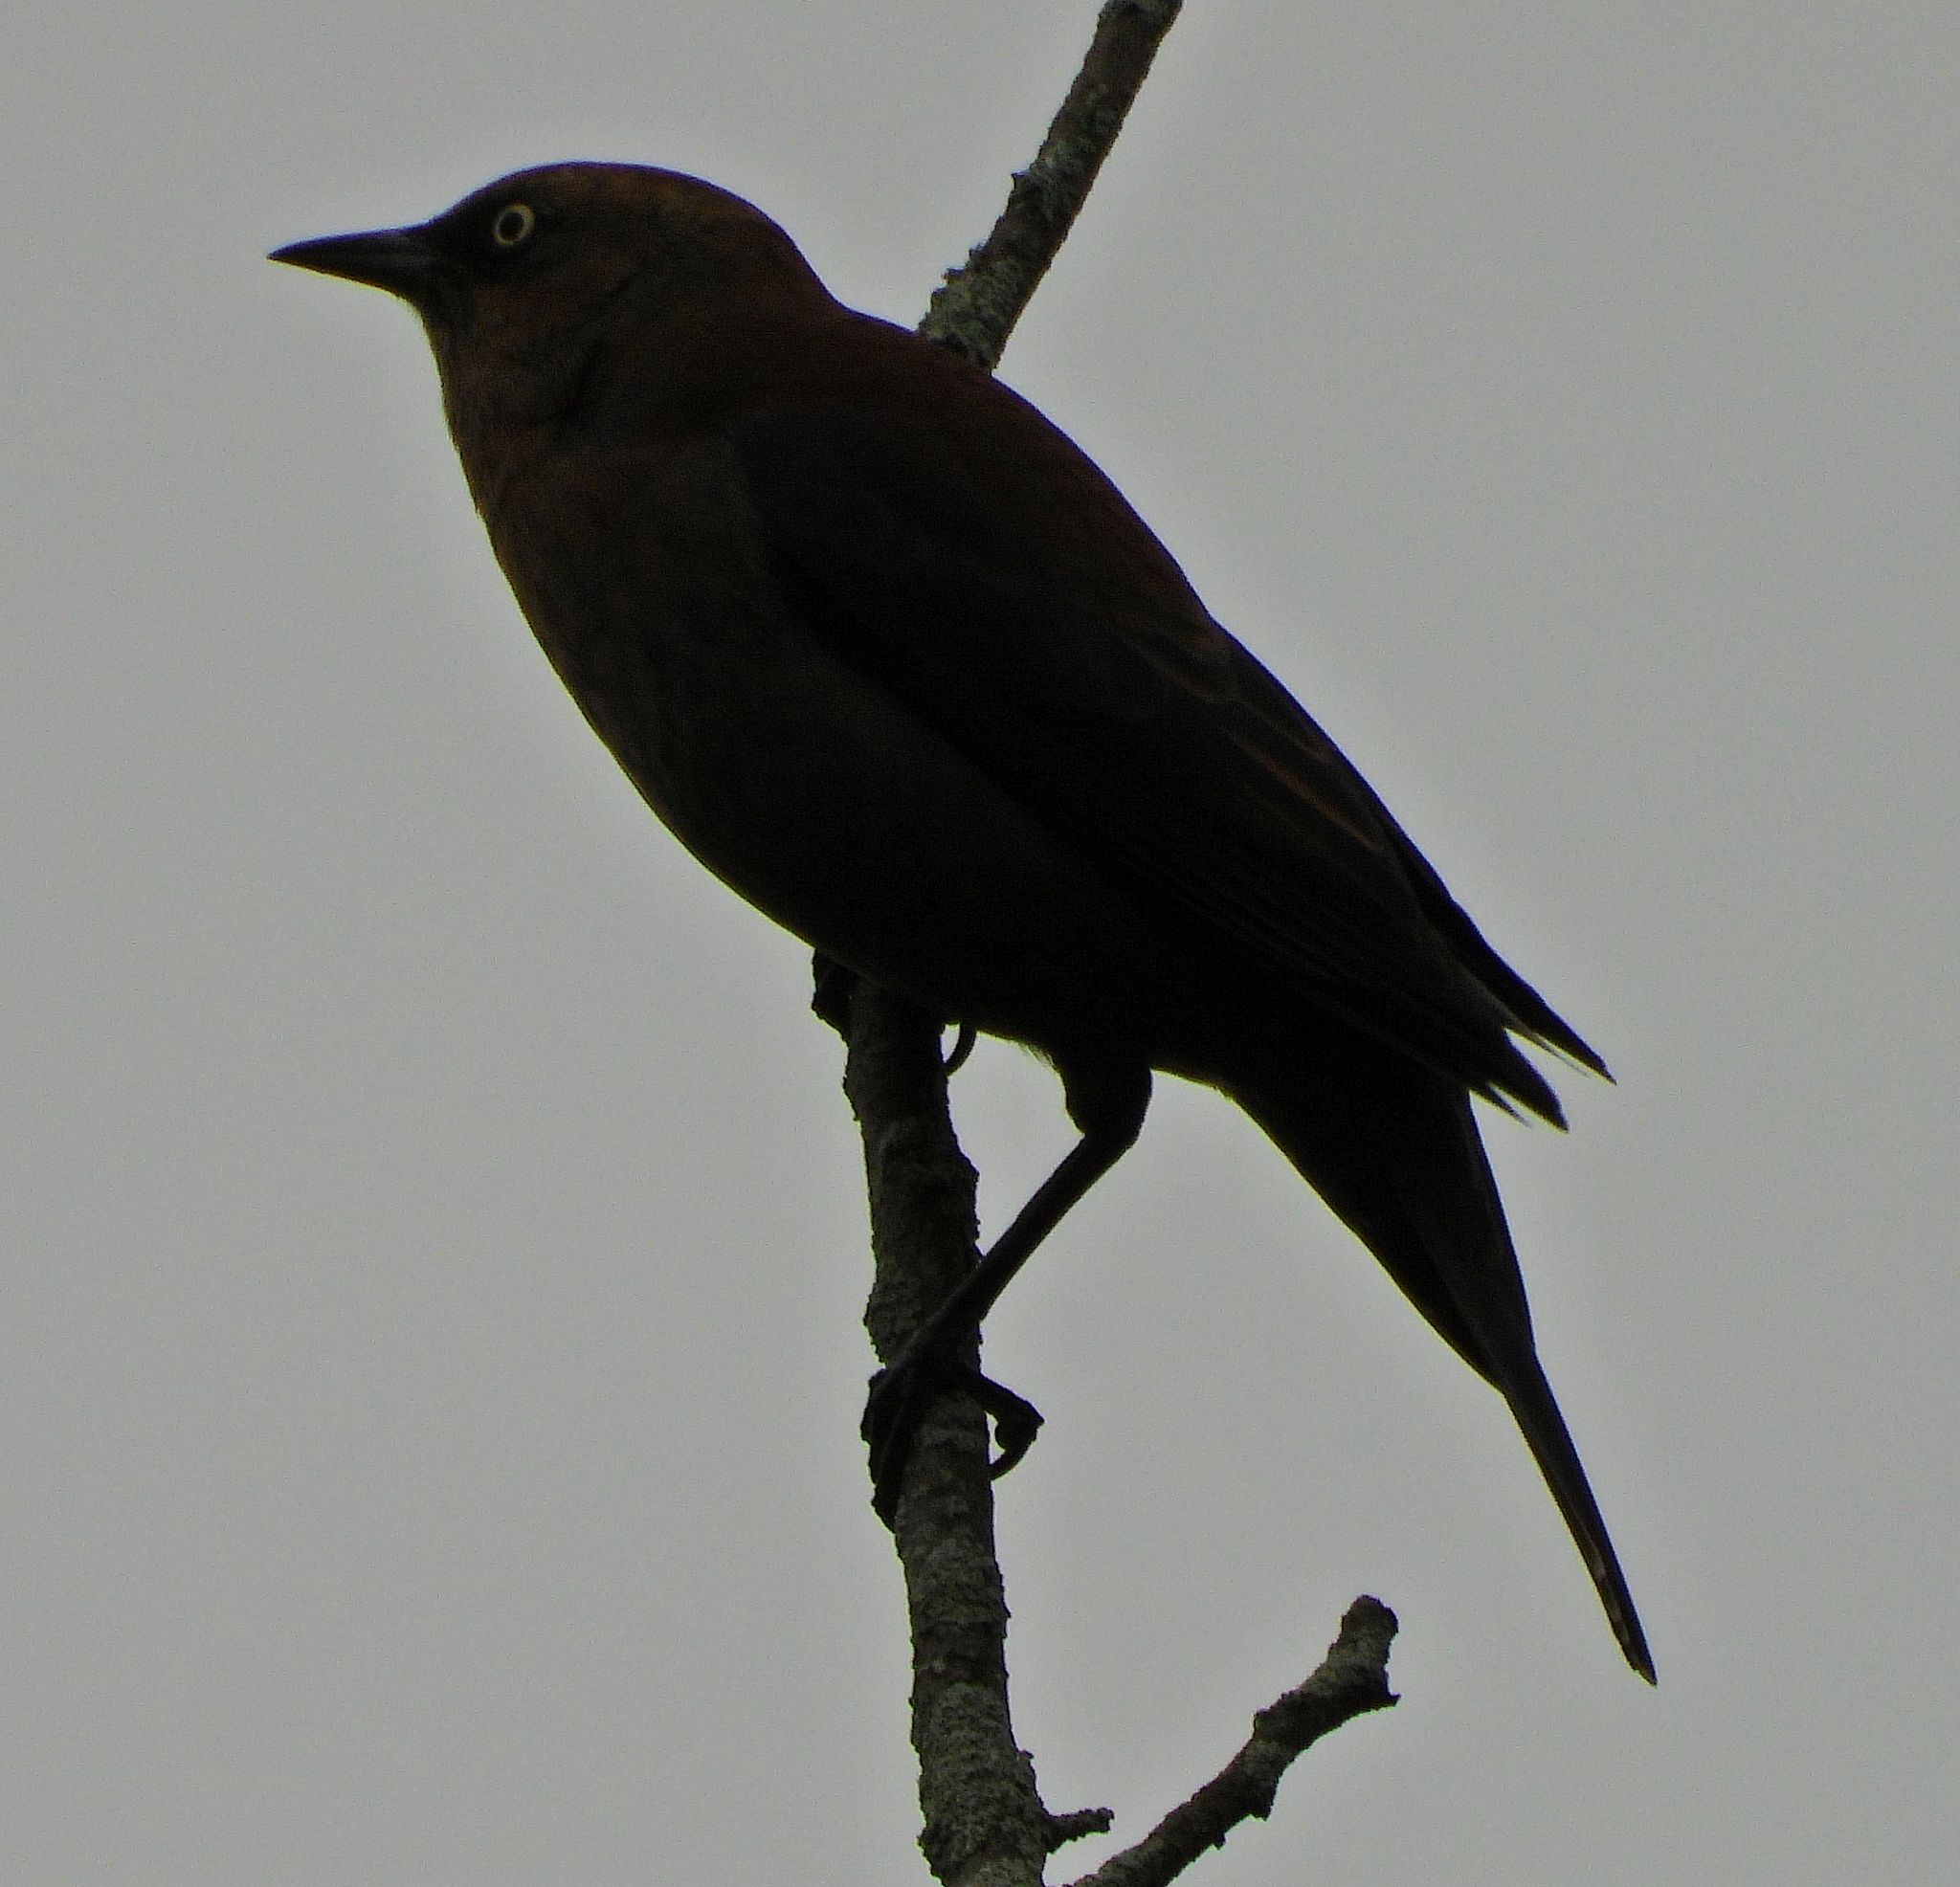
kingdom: Animalia
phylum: Chordata
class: Aves
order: Passeriformes
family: Icteridae
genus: Euphagus
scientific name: Euphagus carolinus
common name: Rusty blackbird
